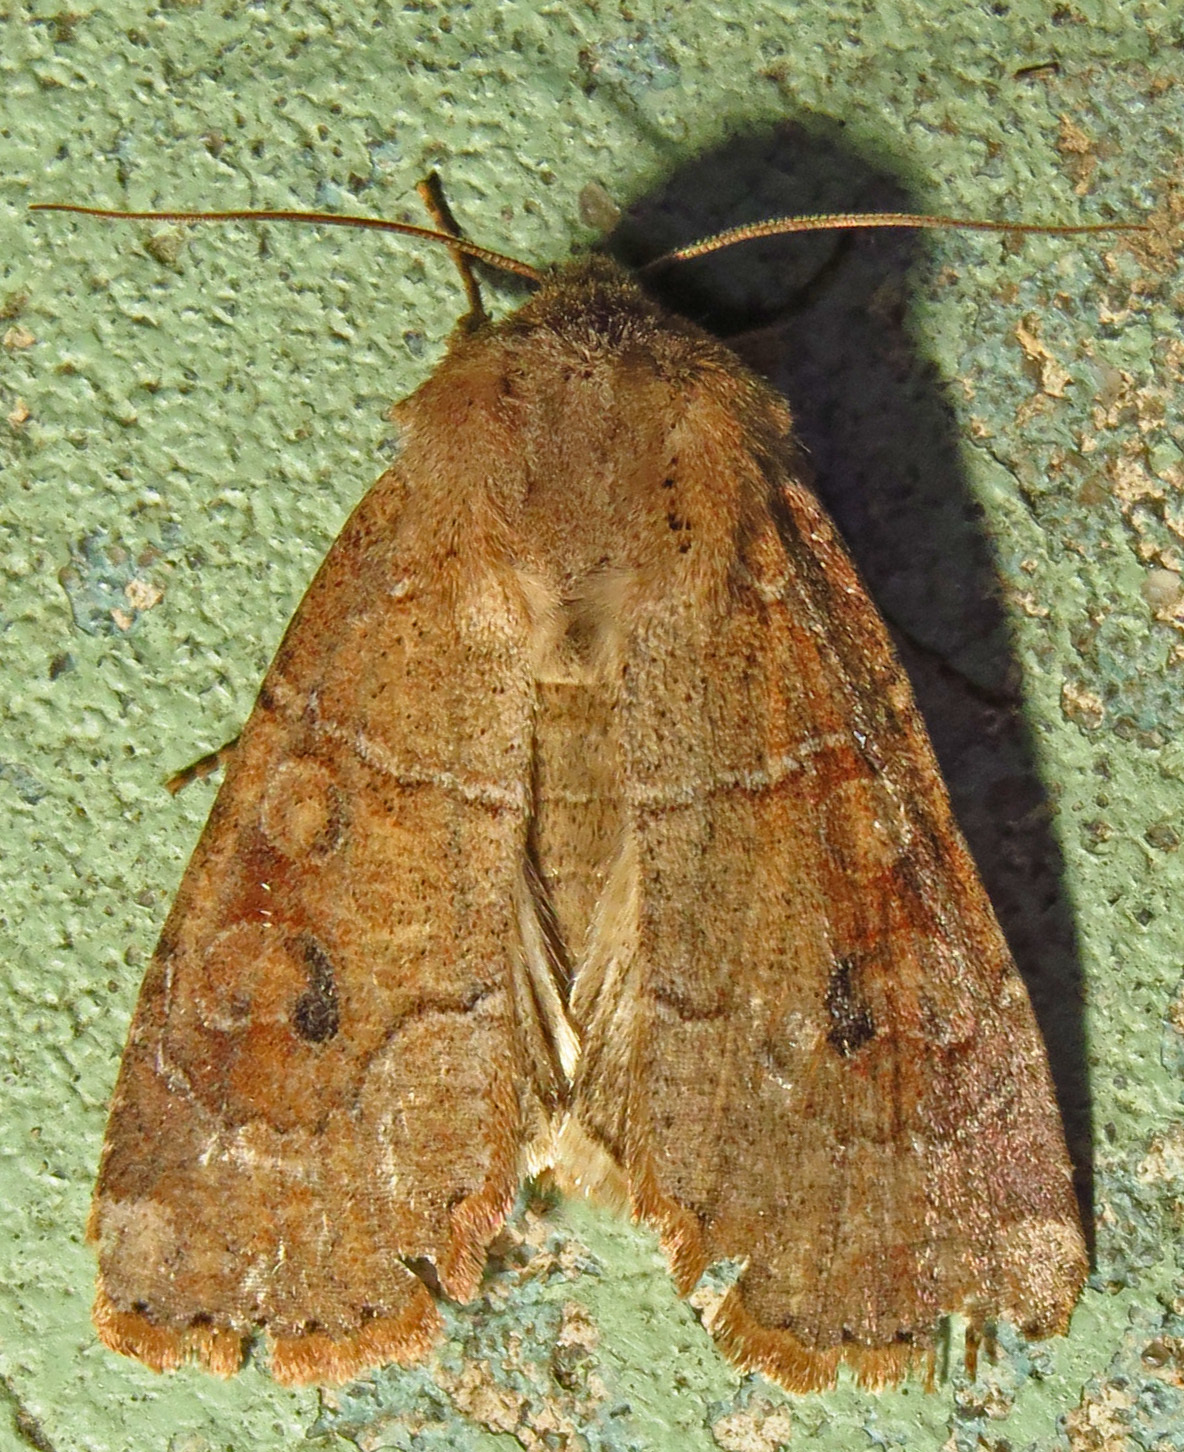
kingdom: Animalia
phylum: Arthropoda
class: Insecta
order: Lepidoptera
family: Noctuidae
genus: Crocigrapha
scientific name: Crocigrapha normani
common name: Norman's quaker
